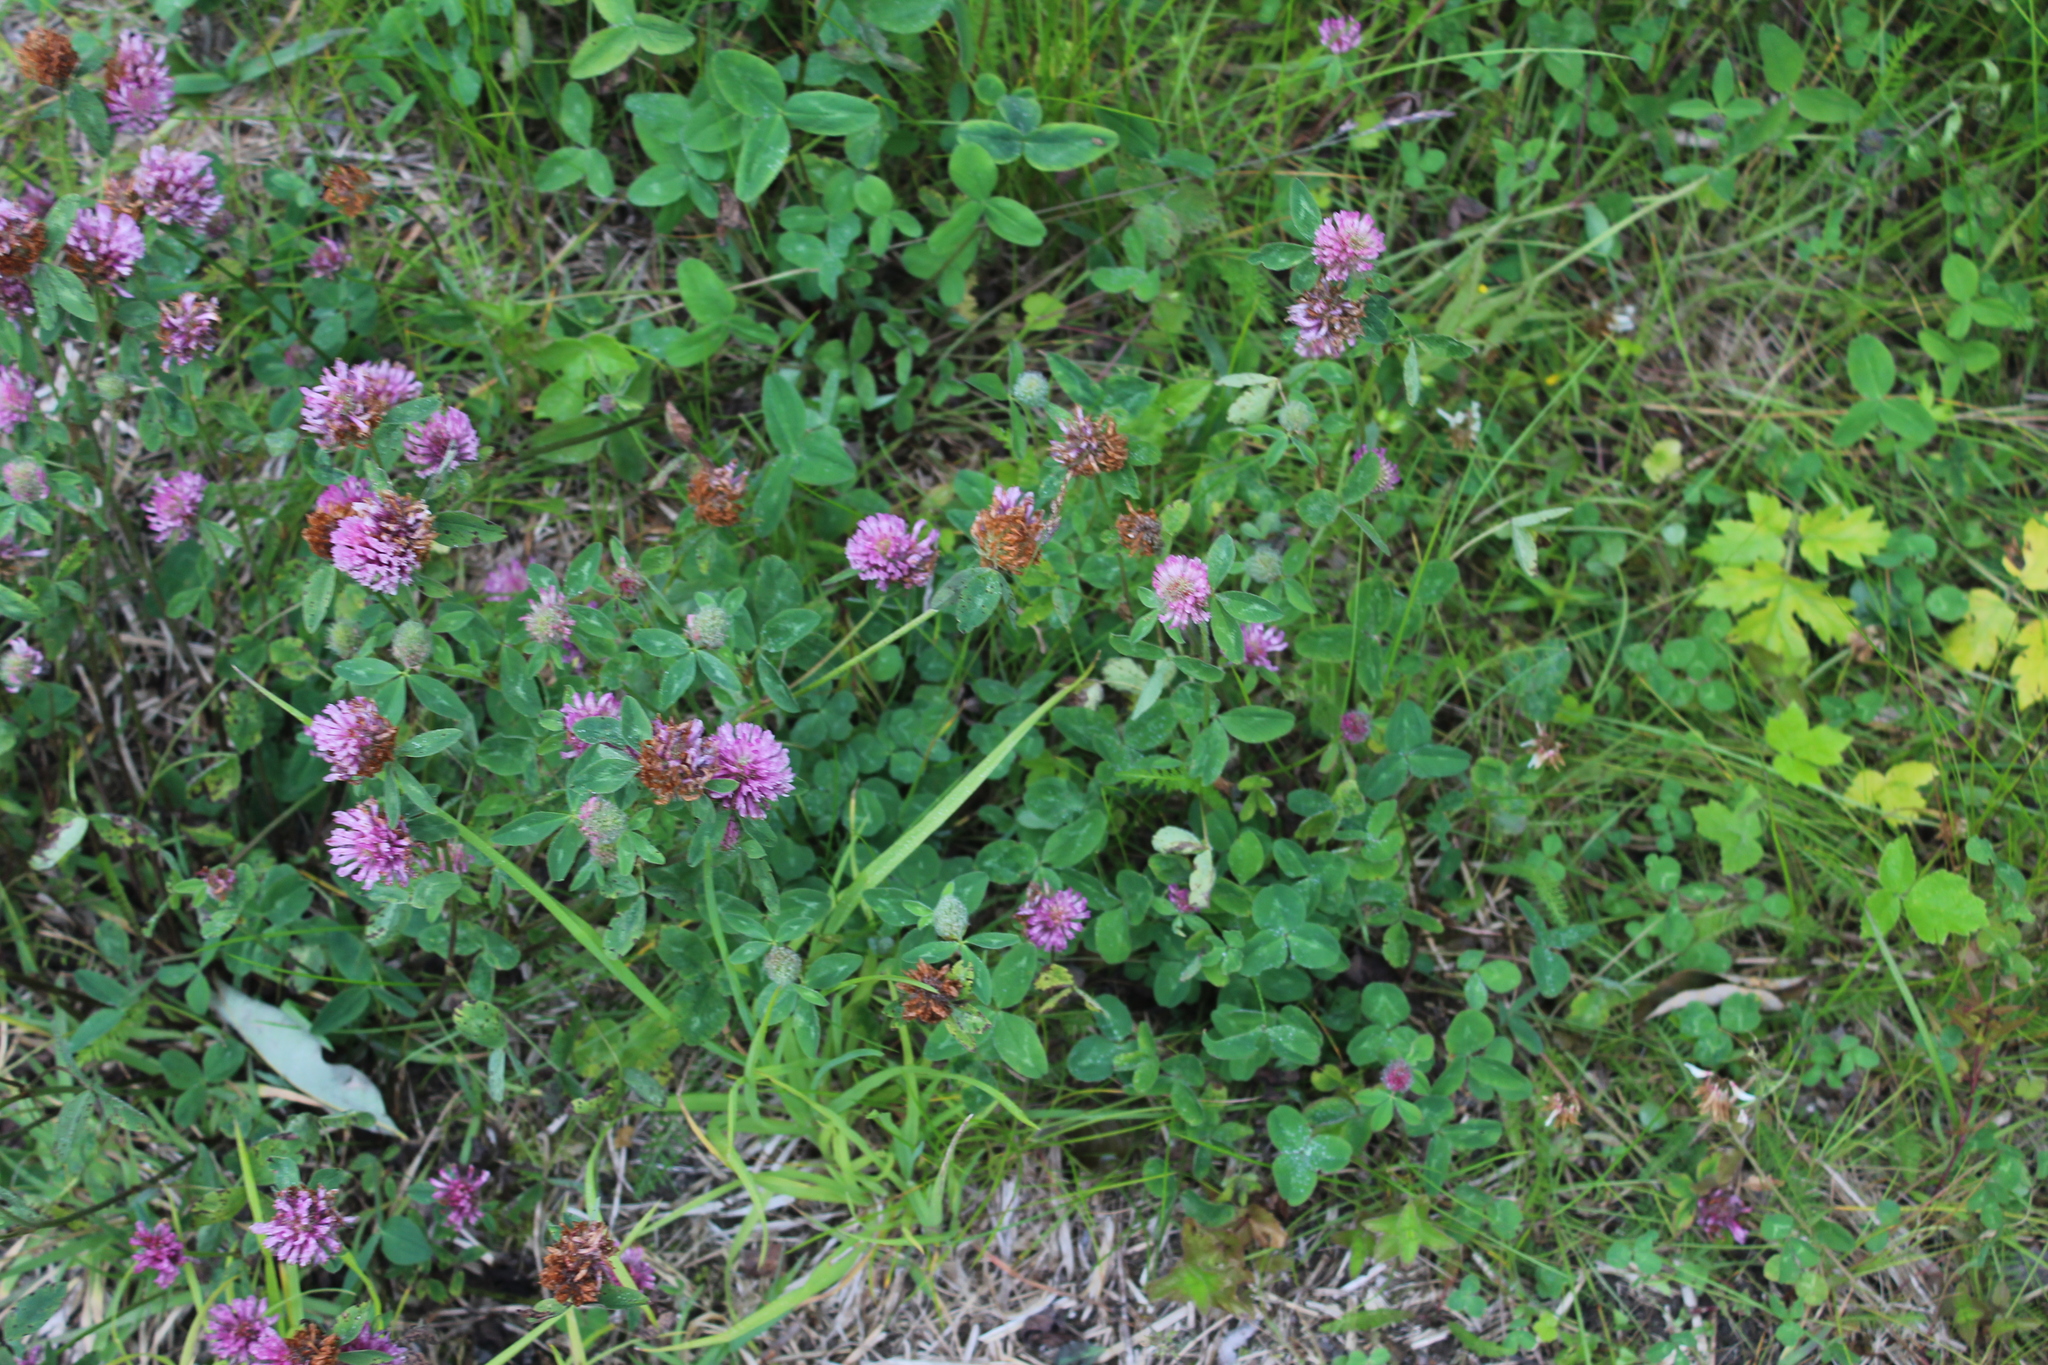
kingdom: Plantae
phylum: Tracheophyta
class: Magnoliopsida
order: Fabales
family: Fabaceae
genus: Trifolium
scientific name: Trifolium pratense
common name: Red clover
